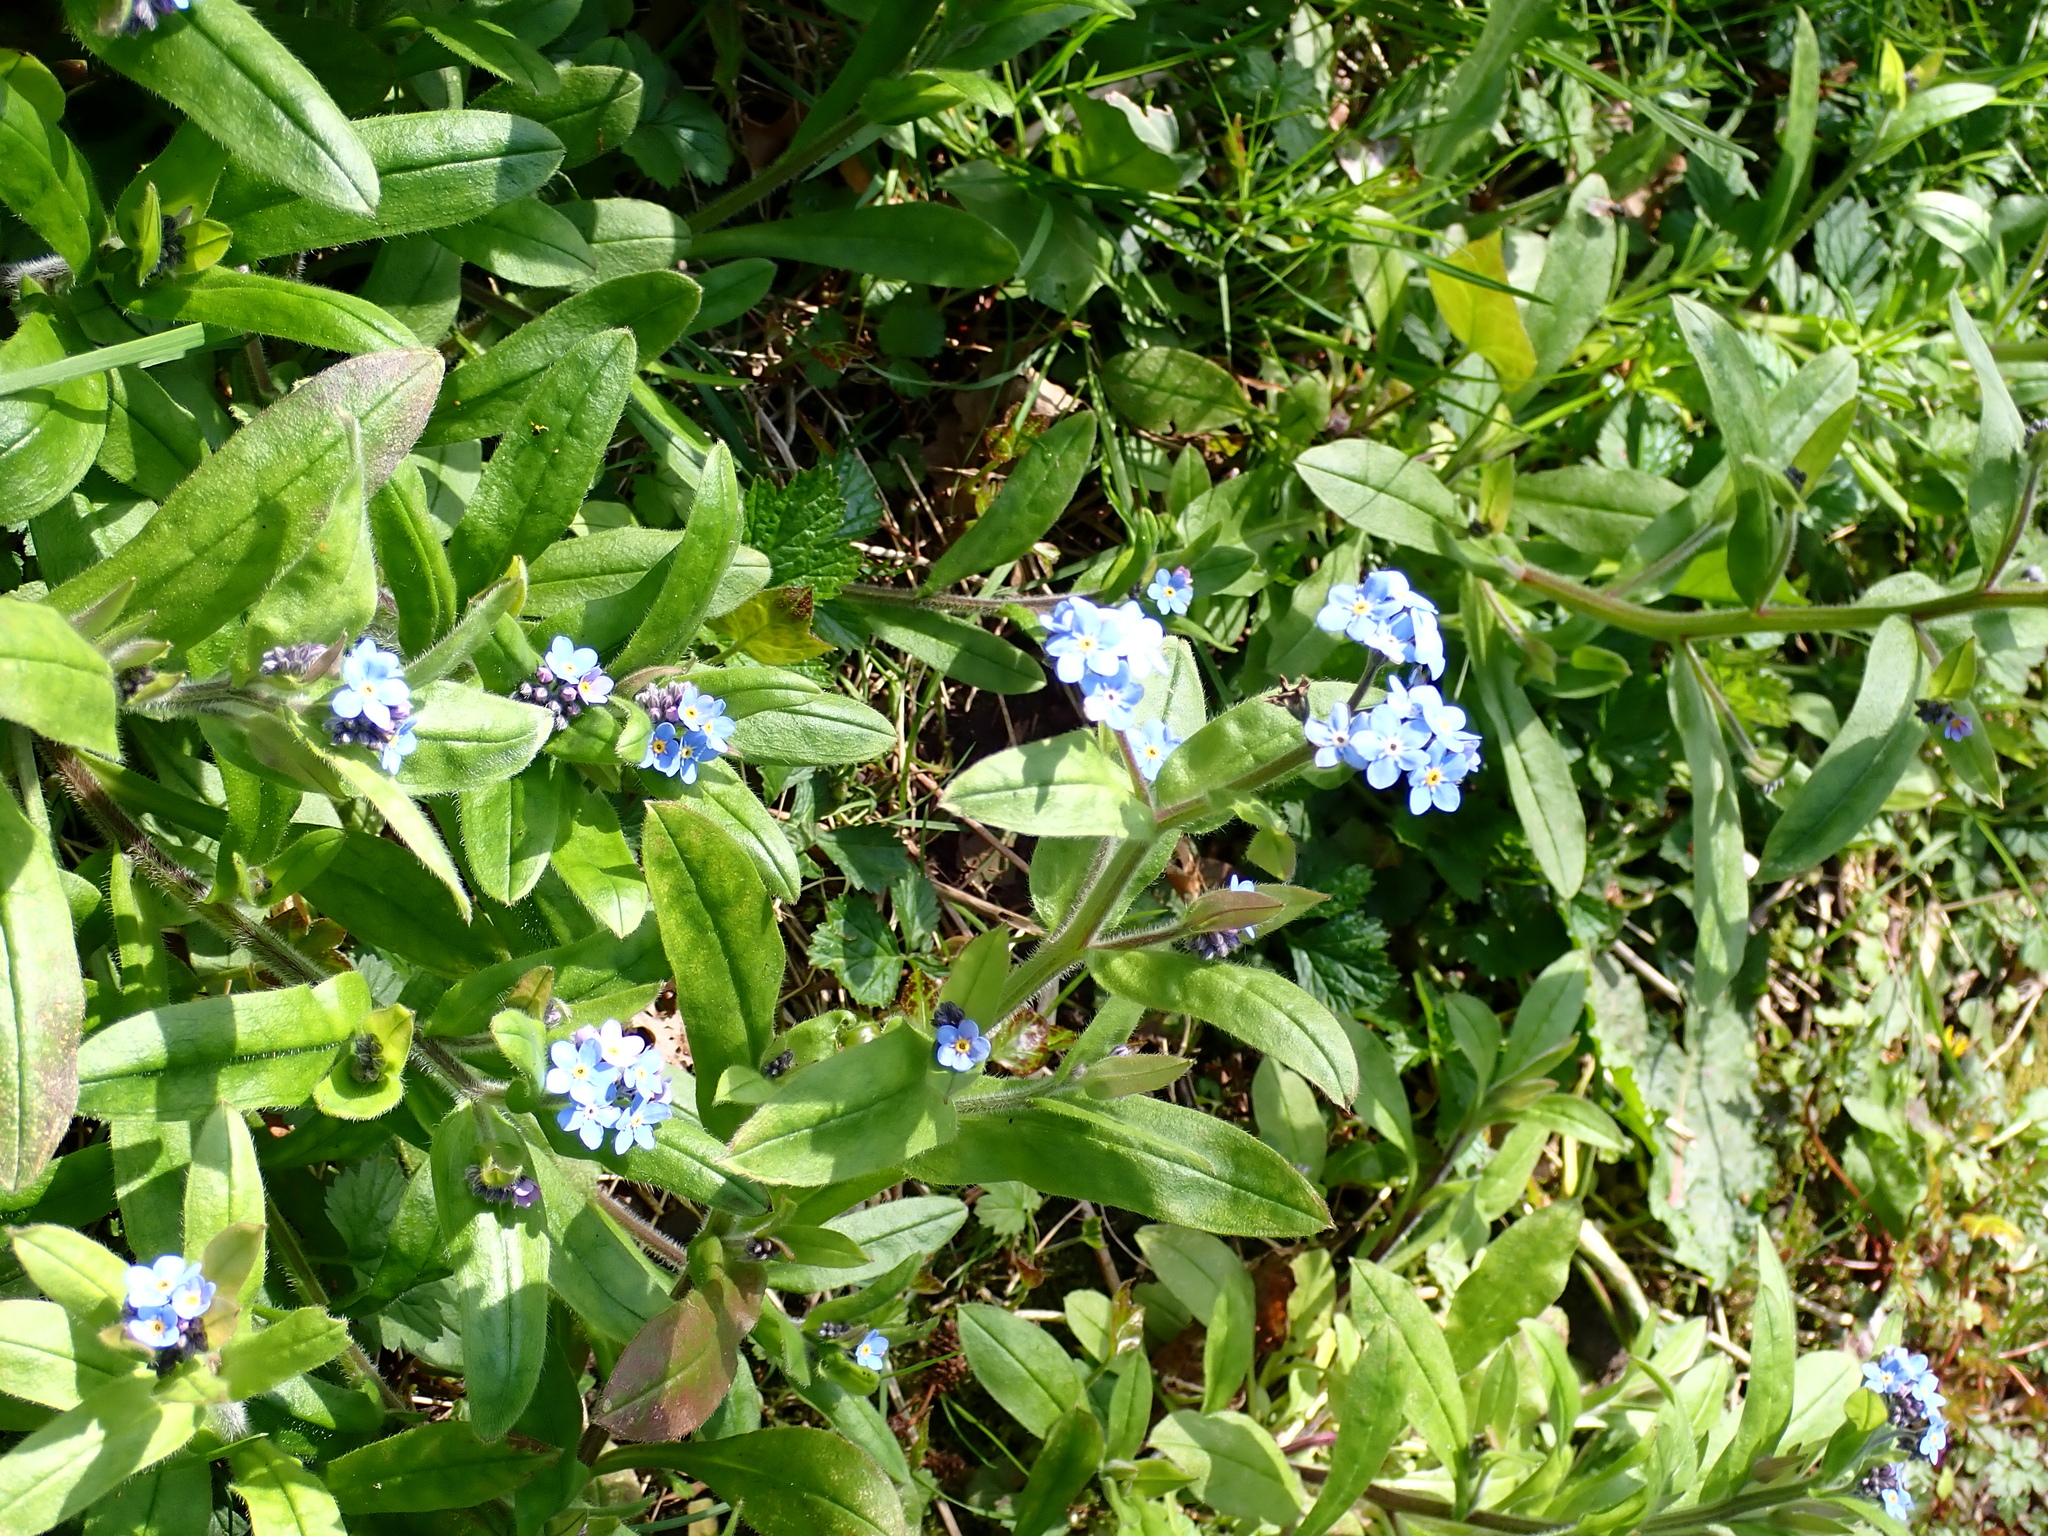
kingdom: Plantae
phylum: Tracheophyta
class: Magnoliopsida
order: Boraginales
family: Boraginaceae
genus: Myosotis
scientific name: Myosotis sylvatica
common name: Wood forget-me-not
